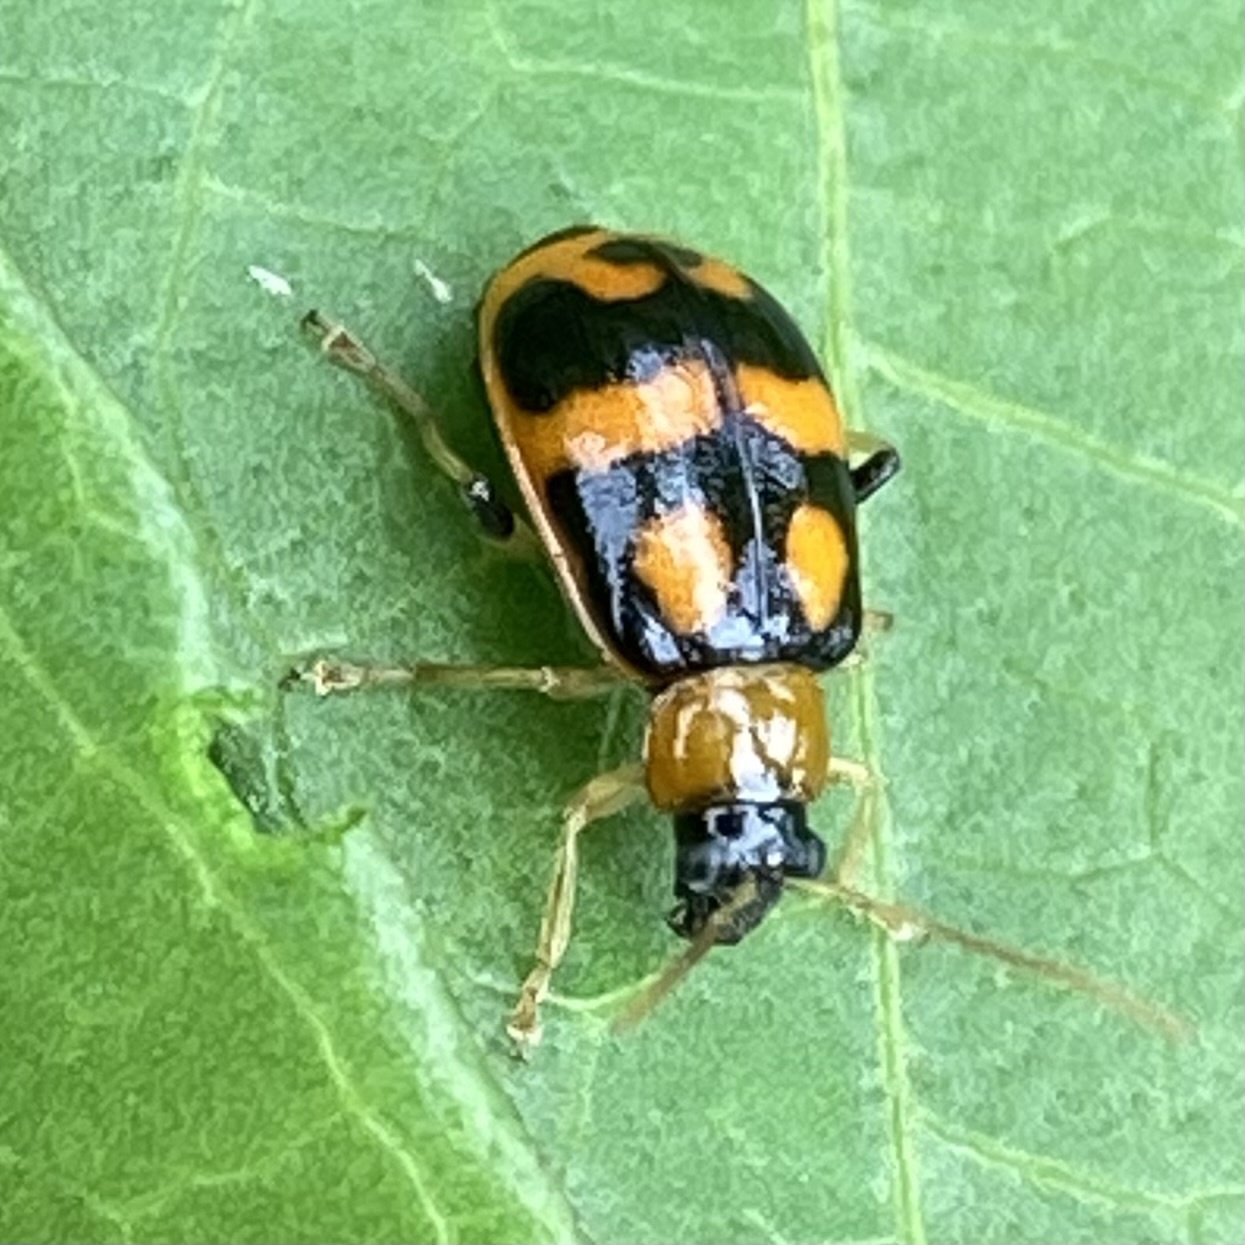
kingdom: Animalia
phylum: Arthropoda
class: Insecta
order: Coleoptera
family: Chrysomelidae
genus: Cerotoma
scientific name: Cerotoma ruficornis
